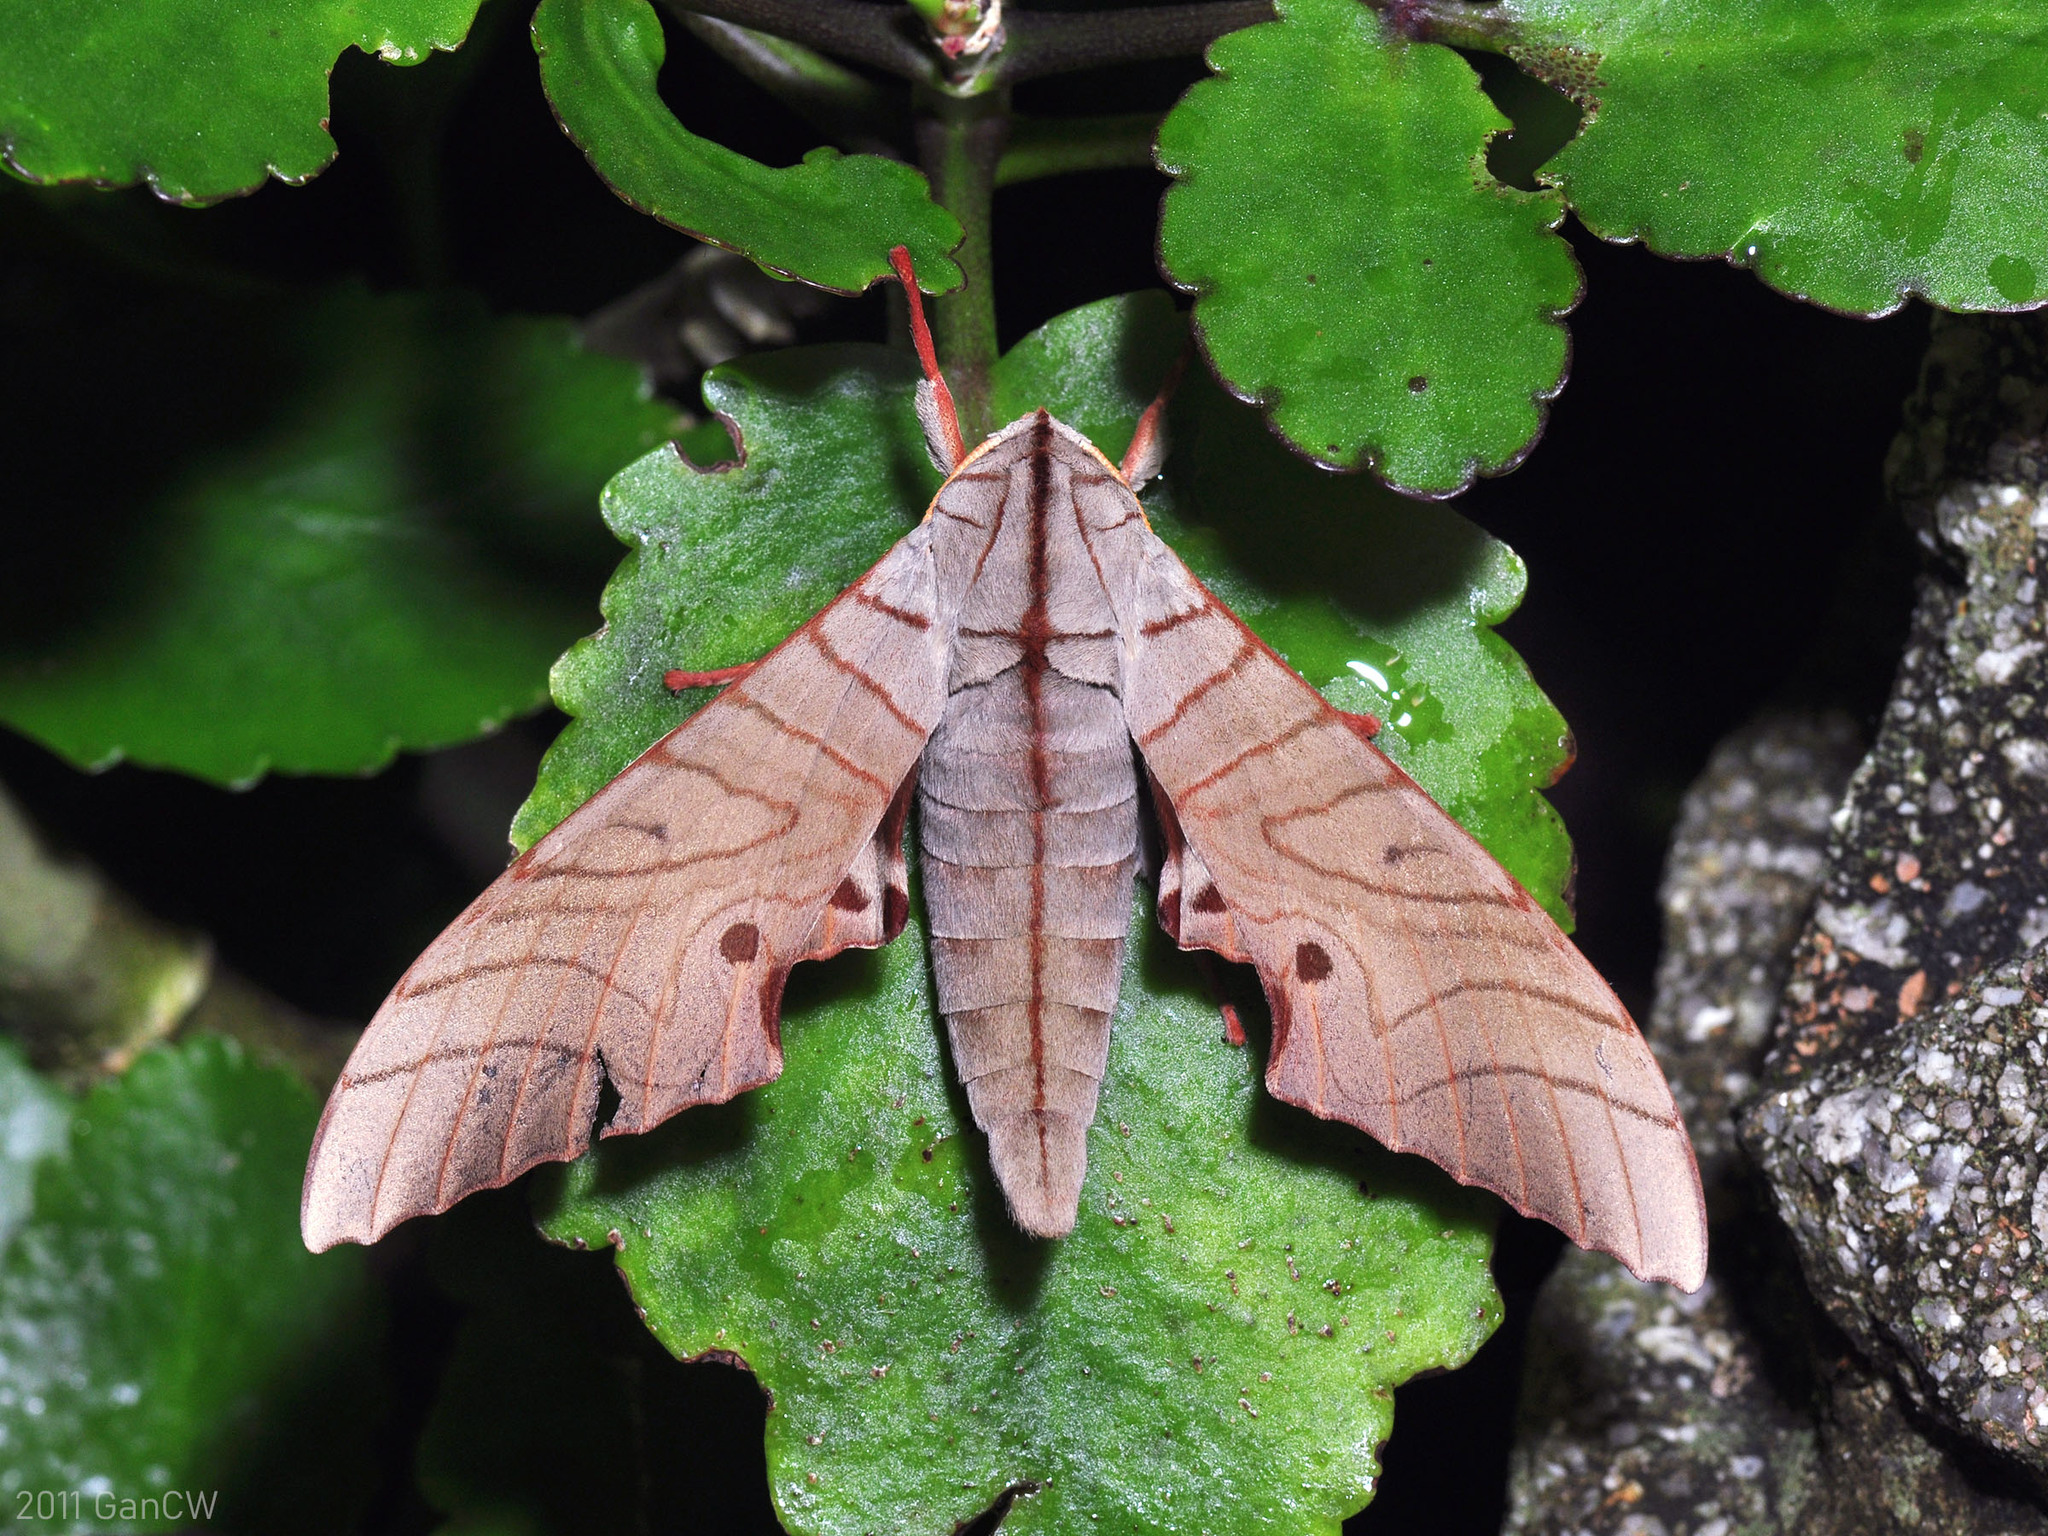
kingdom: Animalia
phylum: Arthropoda
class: Insecta
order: Lepidoptera
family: Sphingidae
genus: Marumba
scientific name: Marumba sperchius
